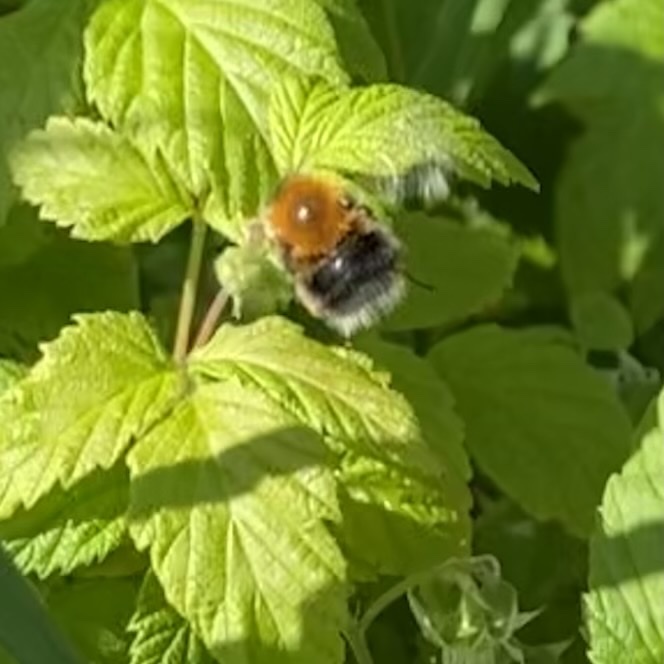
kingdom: Animalia
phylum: Arthropoda
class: Insecta
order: Hymenoptera
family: Apidae
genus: Bombus
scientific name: Bombus hypnorum
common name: New garden bumblebee
